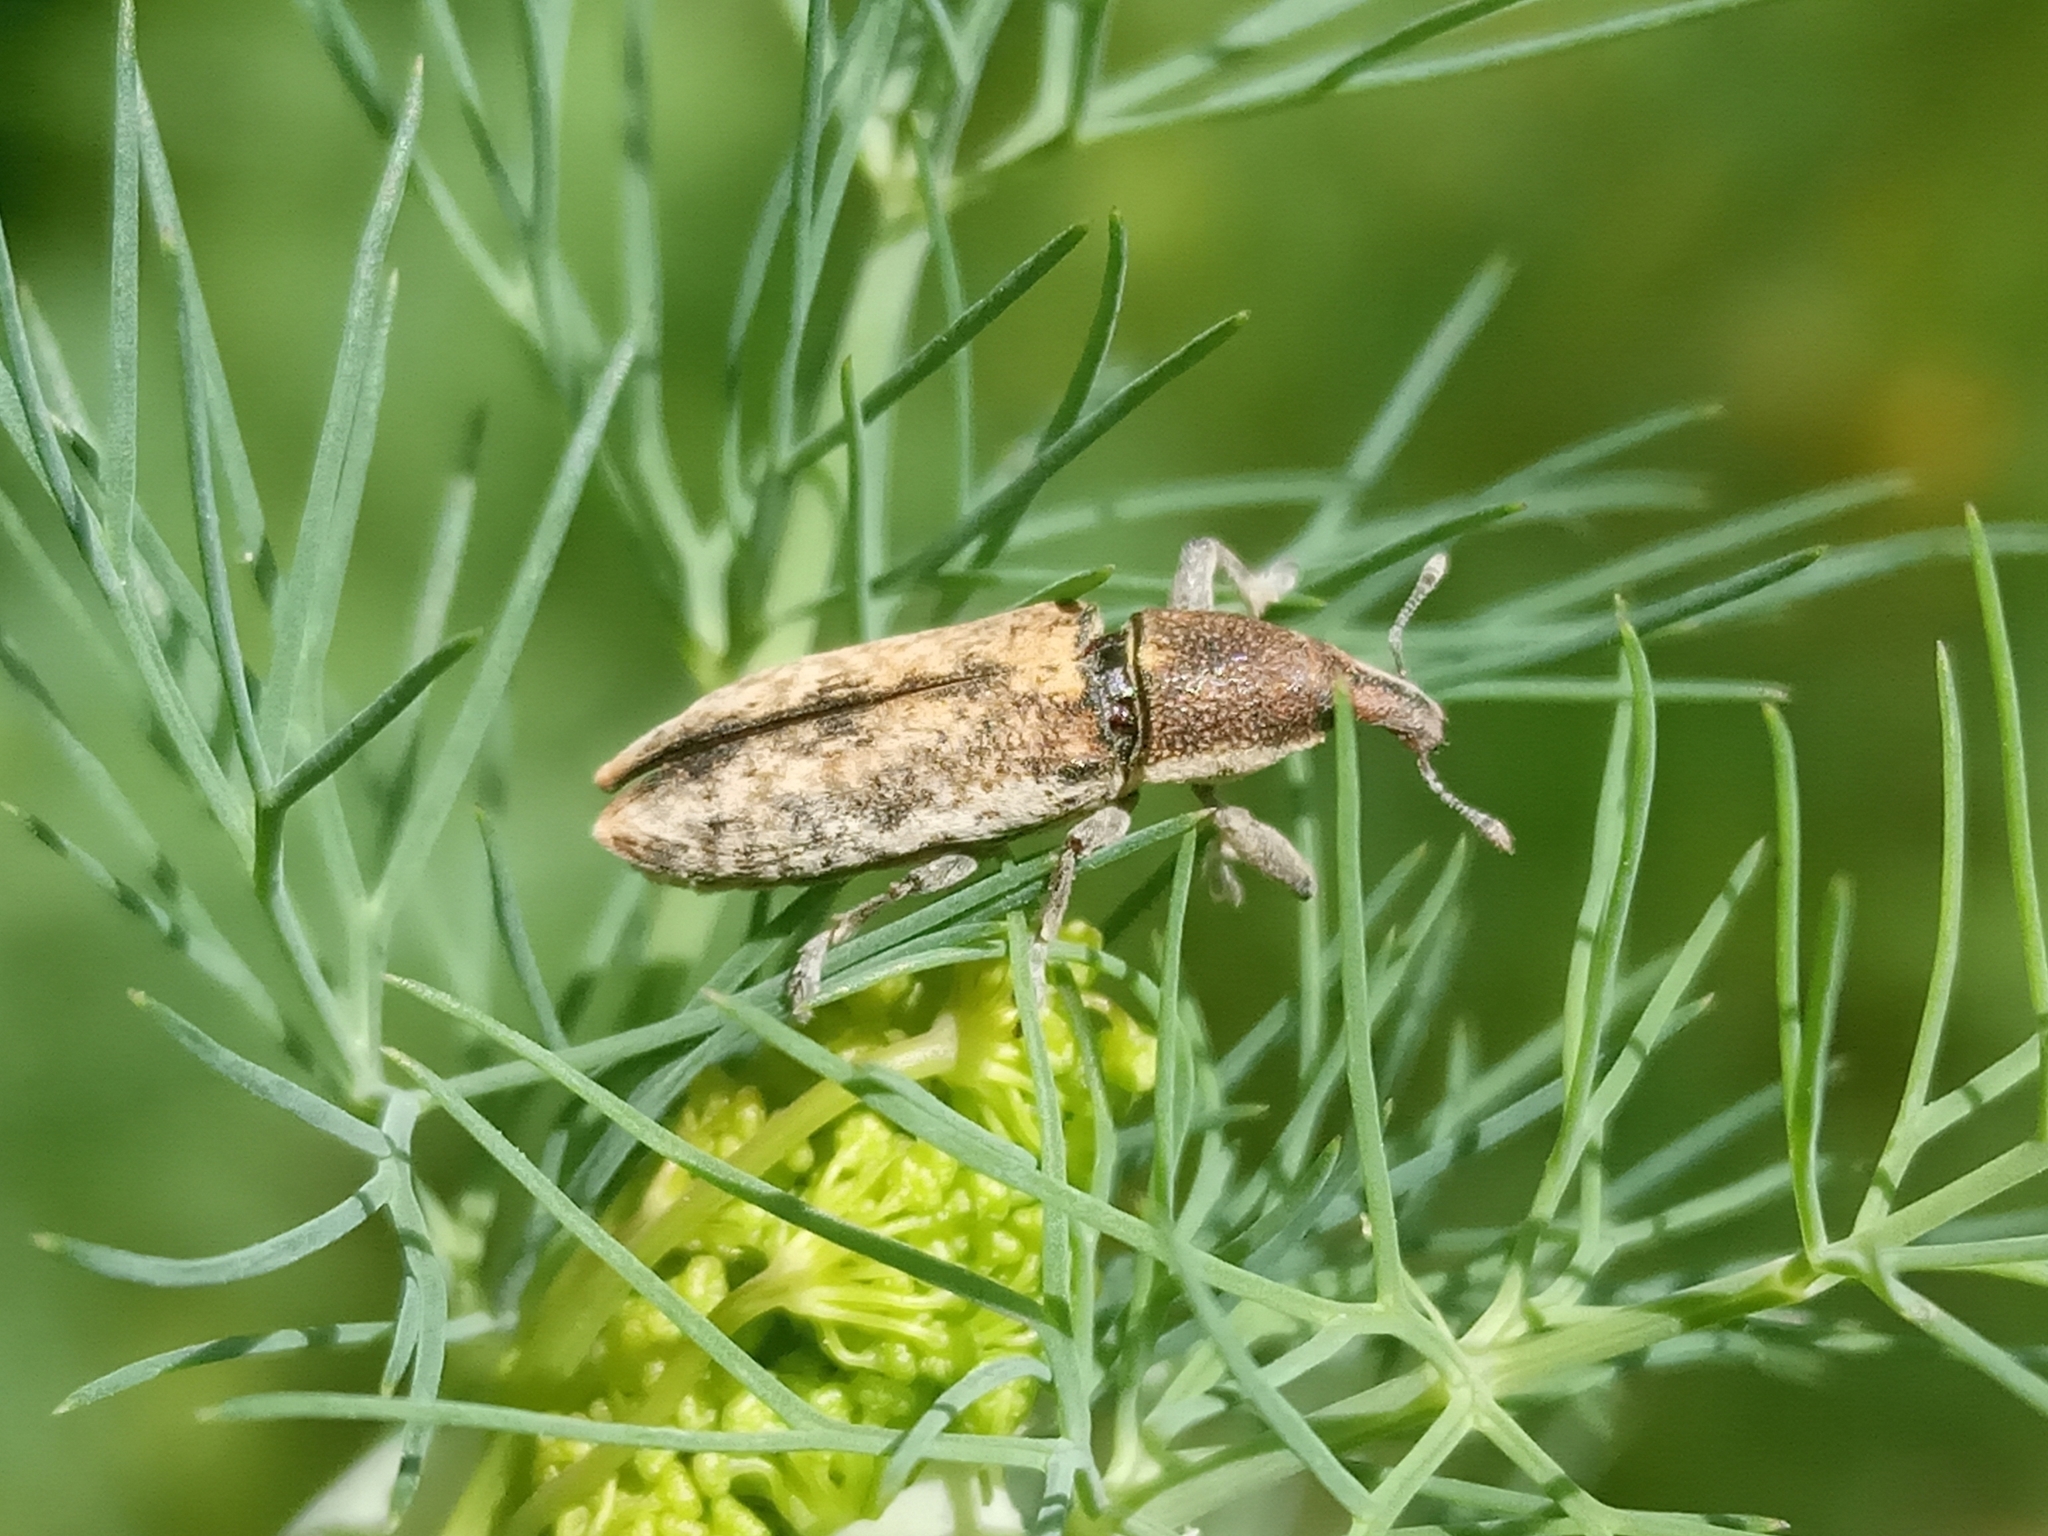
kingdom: Animalia
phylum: Arthropoda
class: Insecta
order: Coleoptera
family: Curculionidae
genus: Lixus
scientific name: Lixus subtilis
